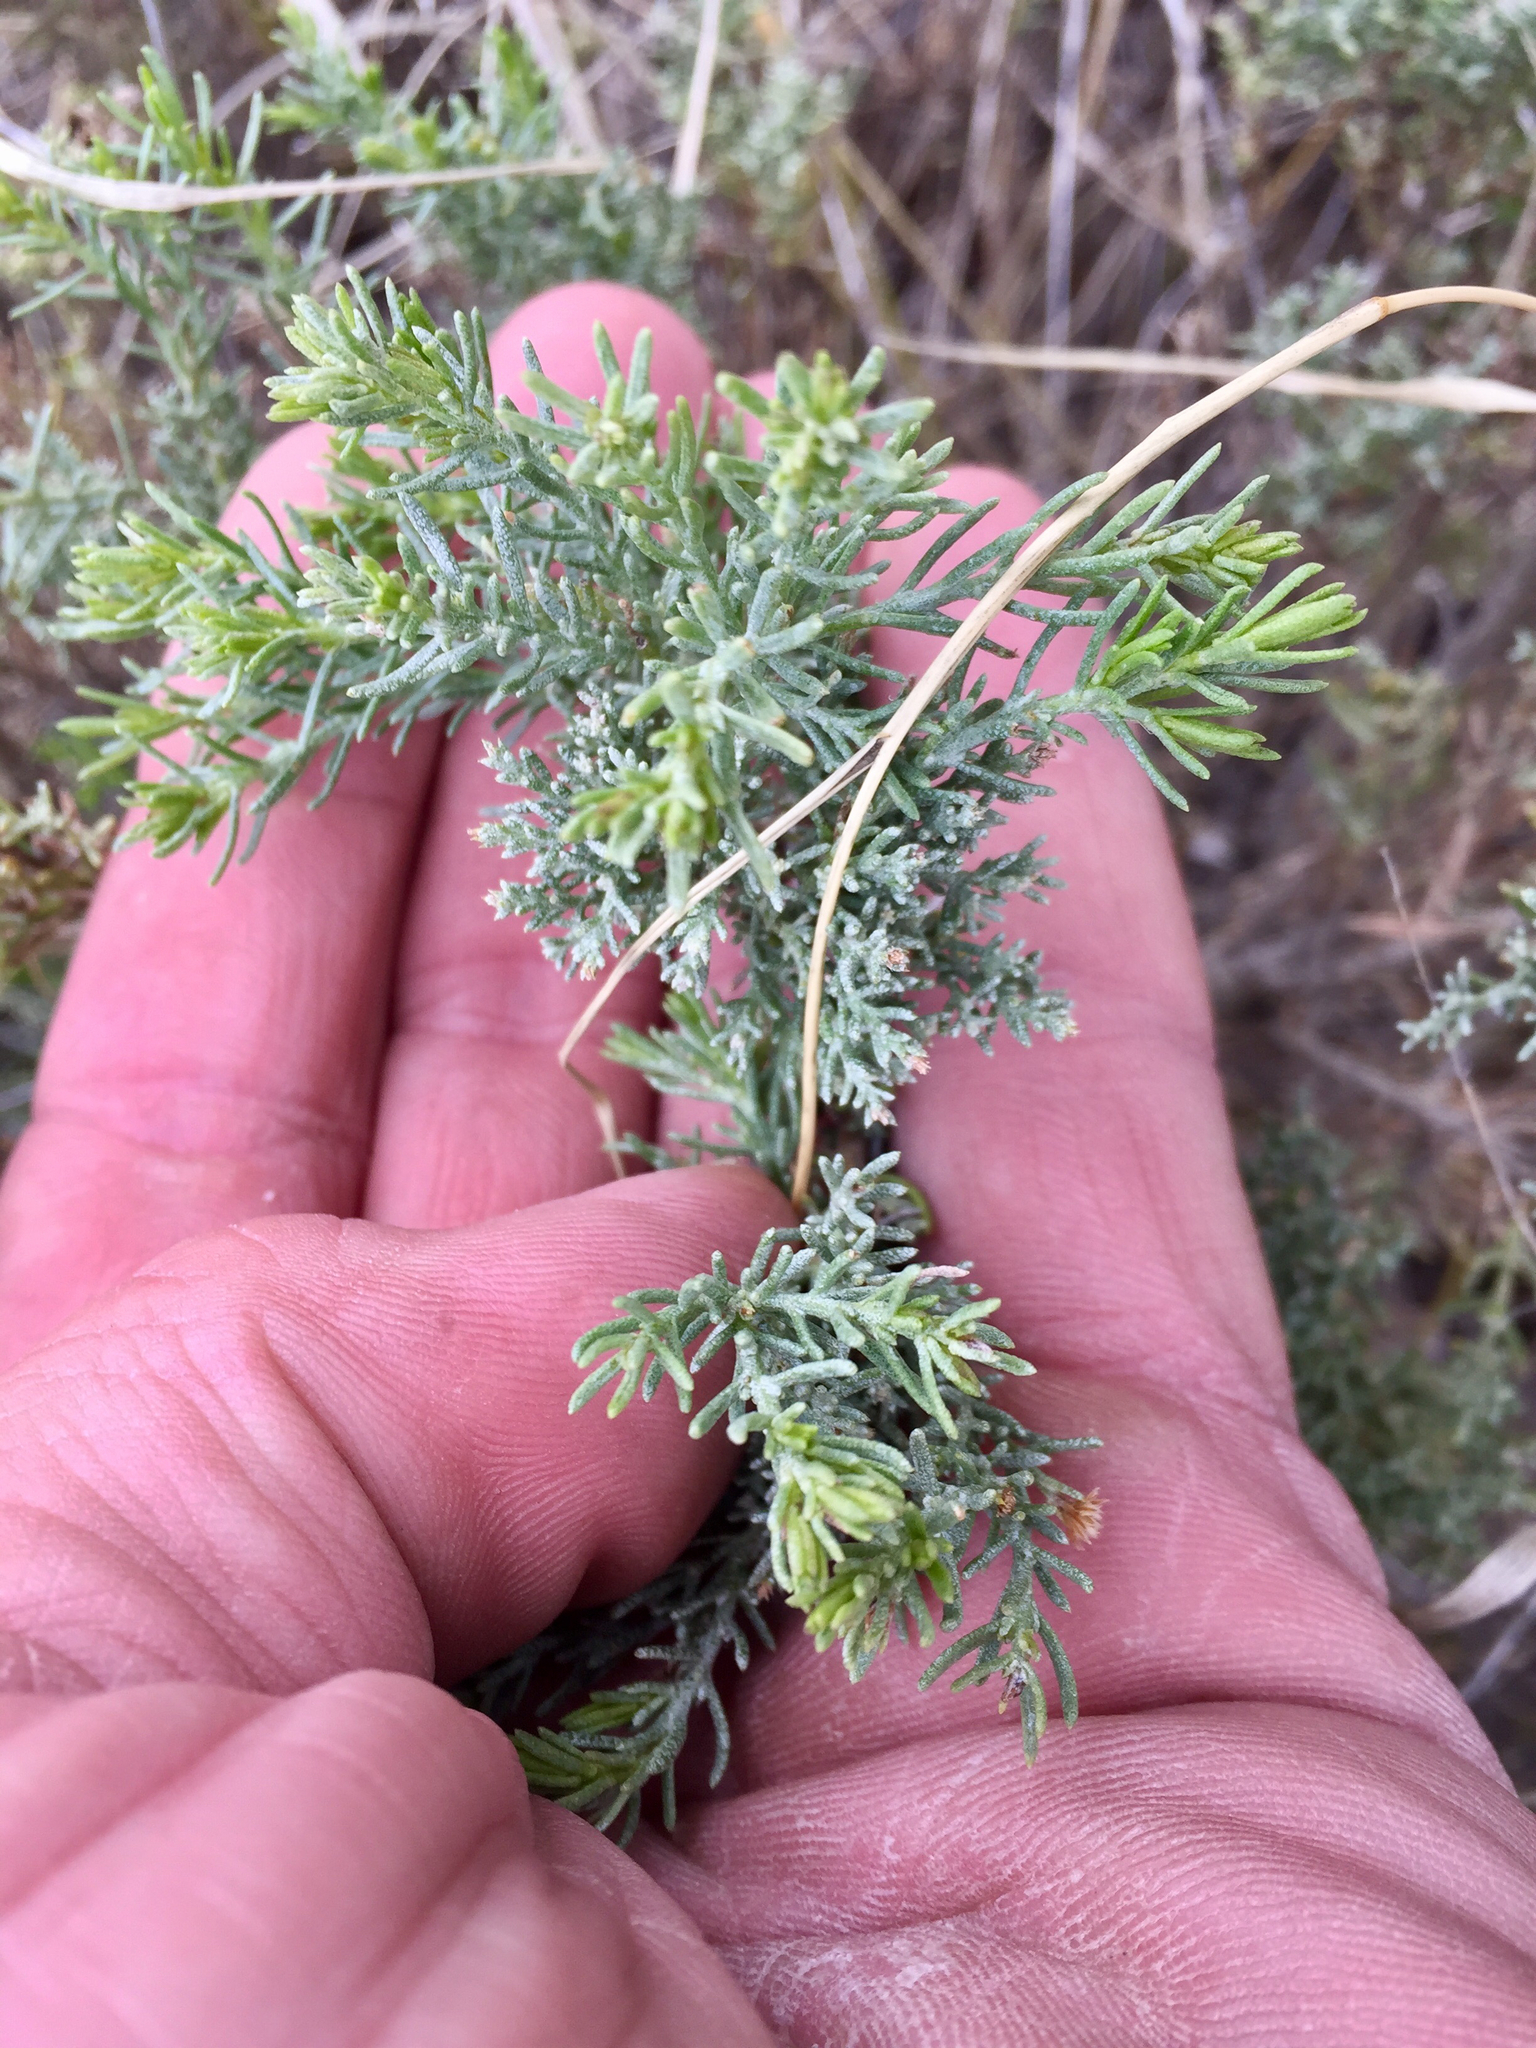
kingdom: Plantae
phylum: Tracheophyta
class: Magnoliopsida
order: Asterales
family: Asteraceae
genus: Ericameria
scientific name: Ericameria laricifolia
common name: Turpentine-bush
